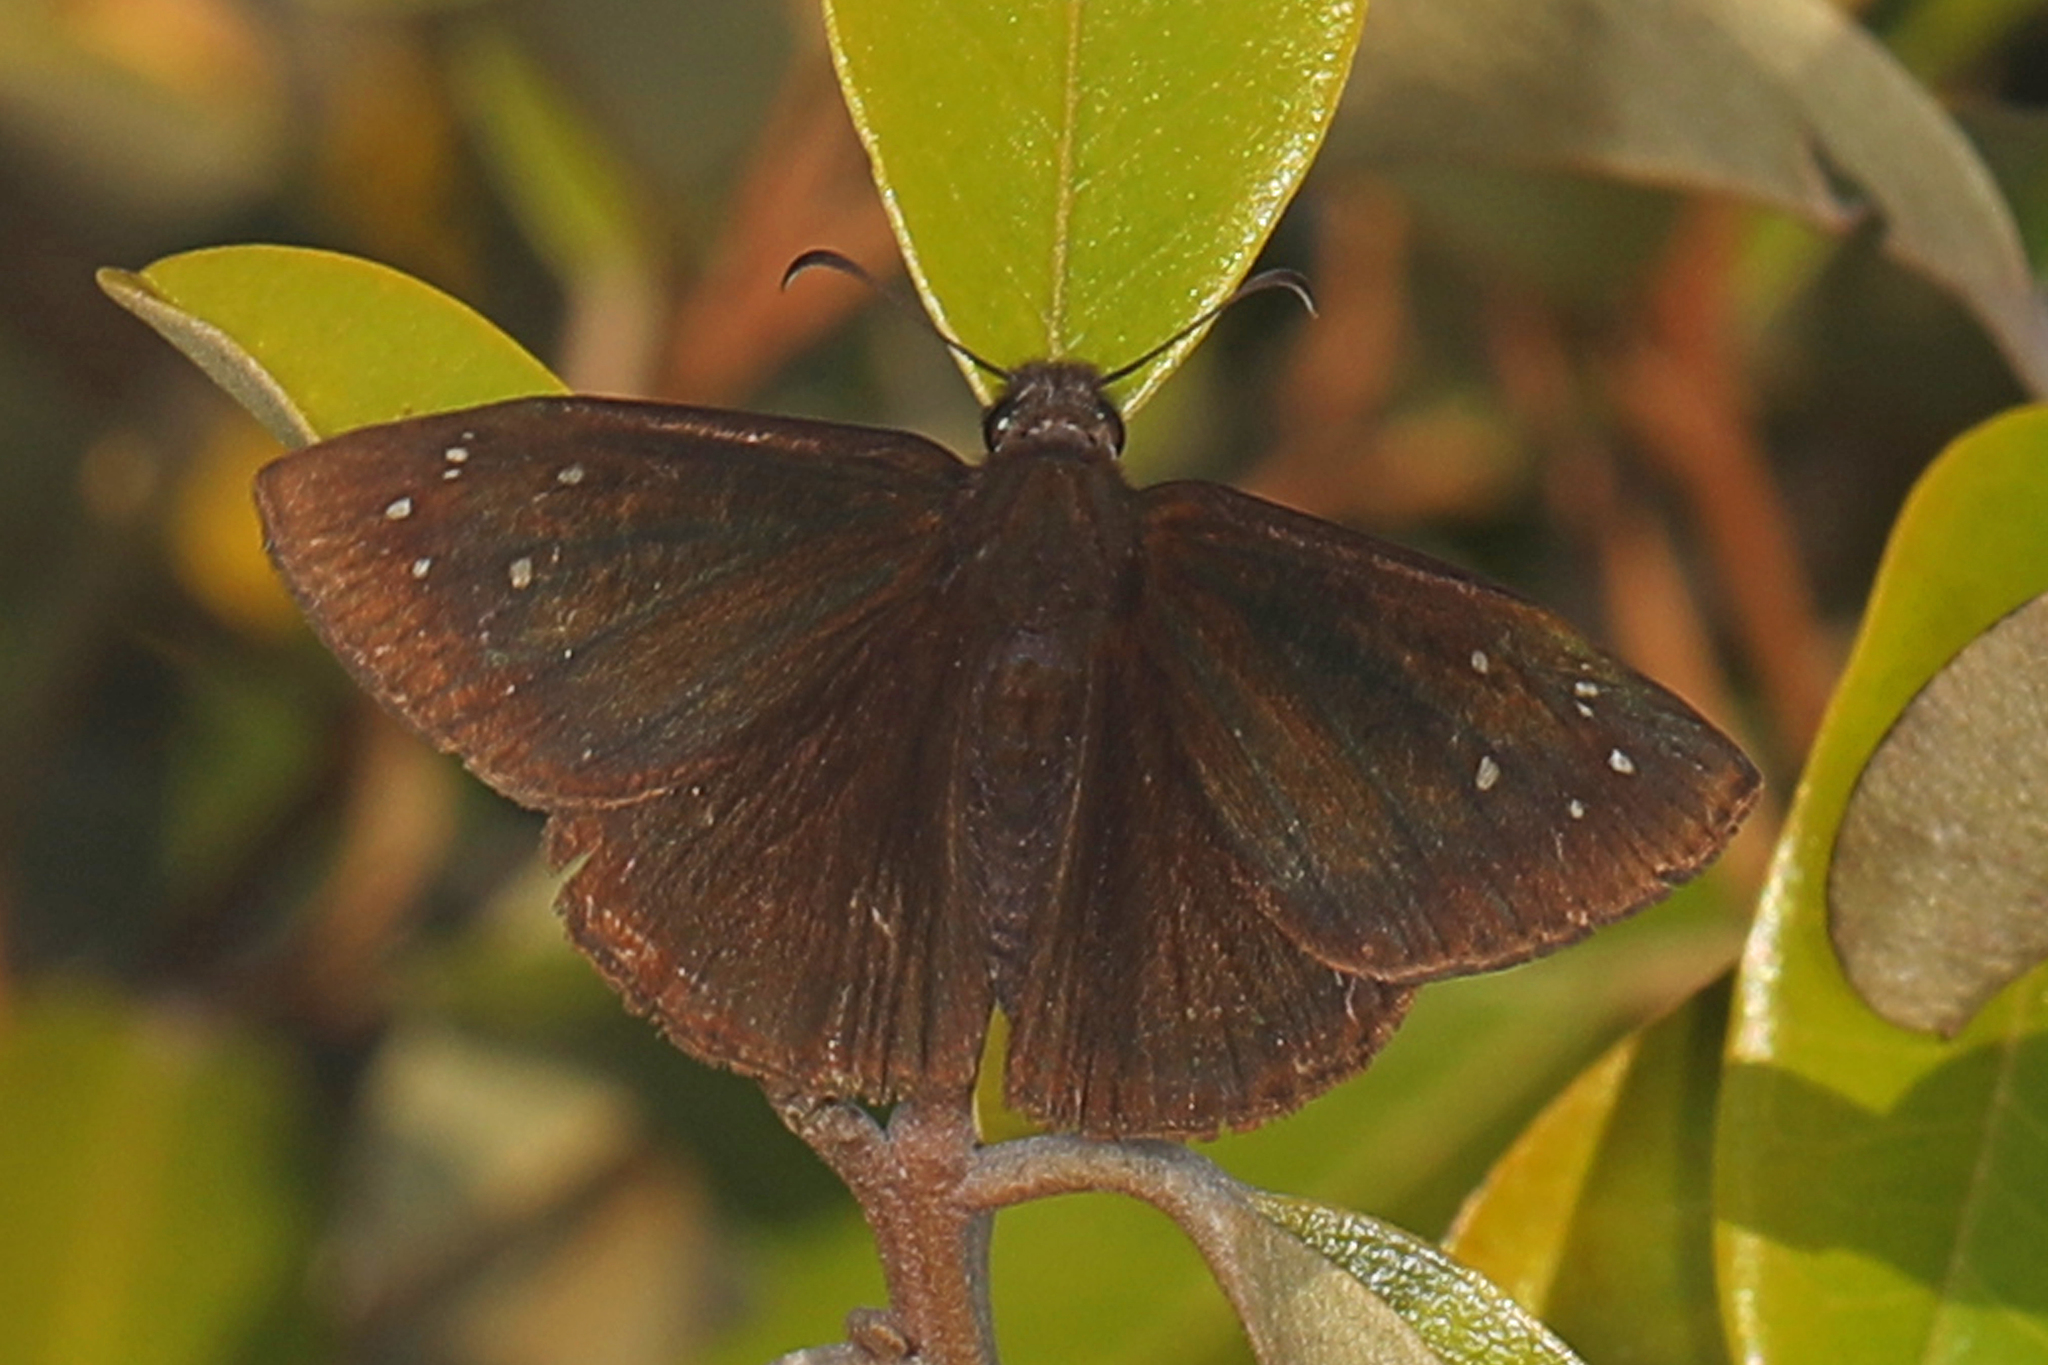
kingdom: Animalia
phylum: Arthropoda
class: Insecta
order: Lepidoptera
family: Hesperiidae
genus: Ephyriades
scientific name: Ephyriades brunnea
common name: Florida duskywing
